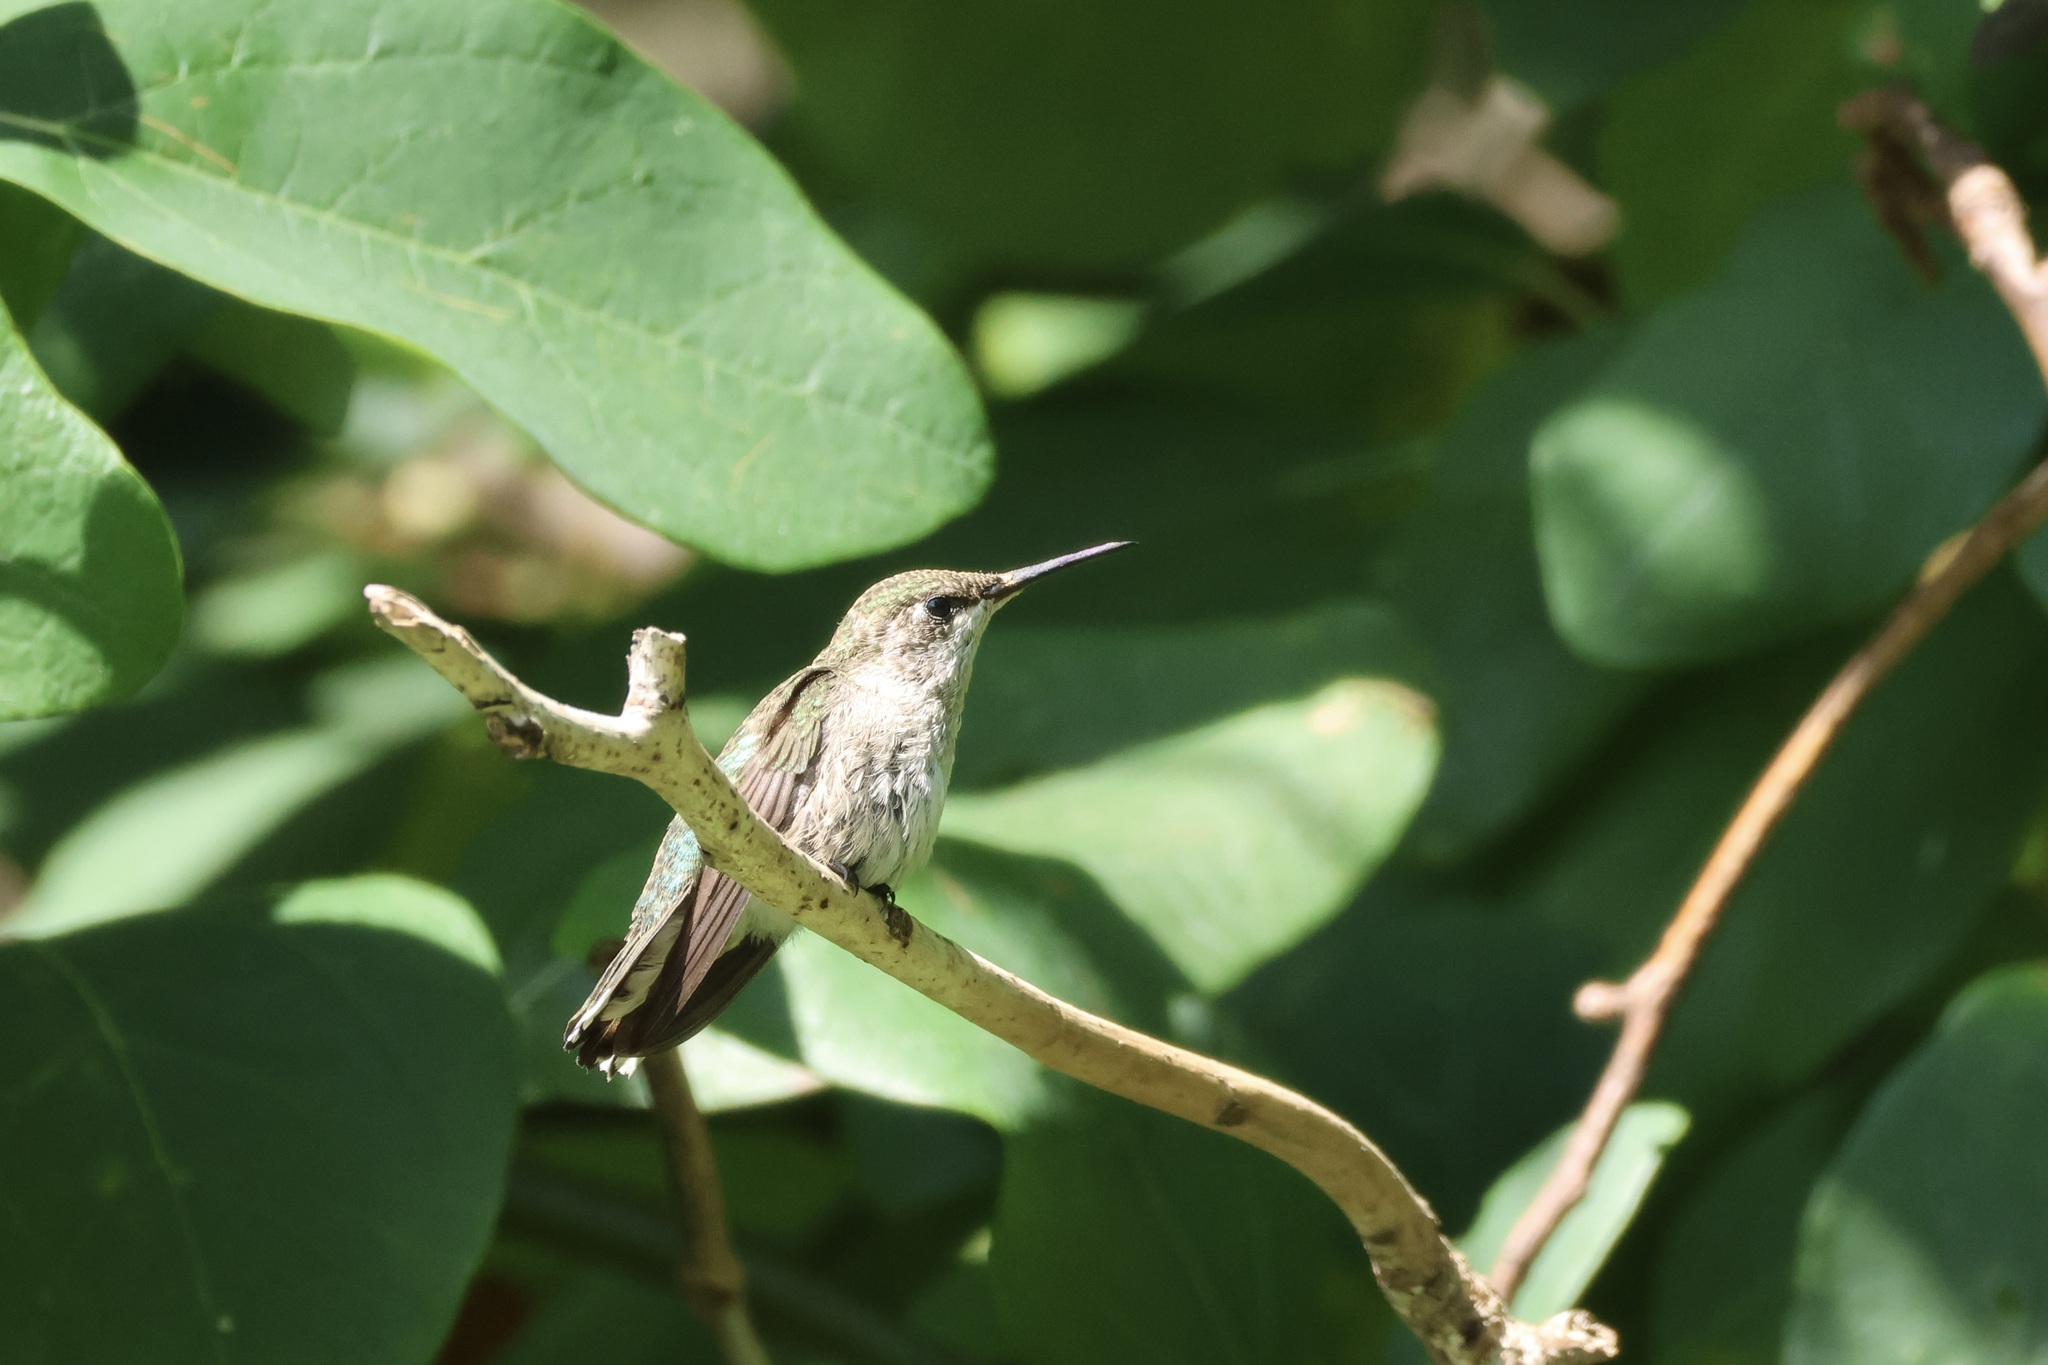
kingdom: Animalia
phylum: Chordata
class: Aves
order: Apodiformes
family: Trochilidae
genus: Archilochus
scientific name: Archilochus colubris
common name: Ruby-throated hummingbird
